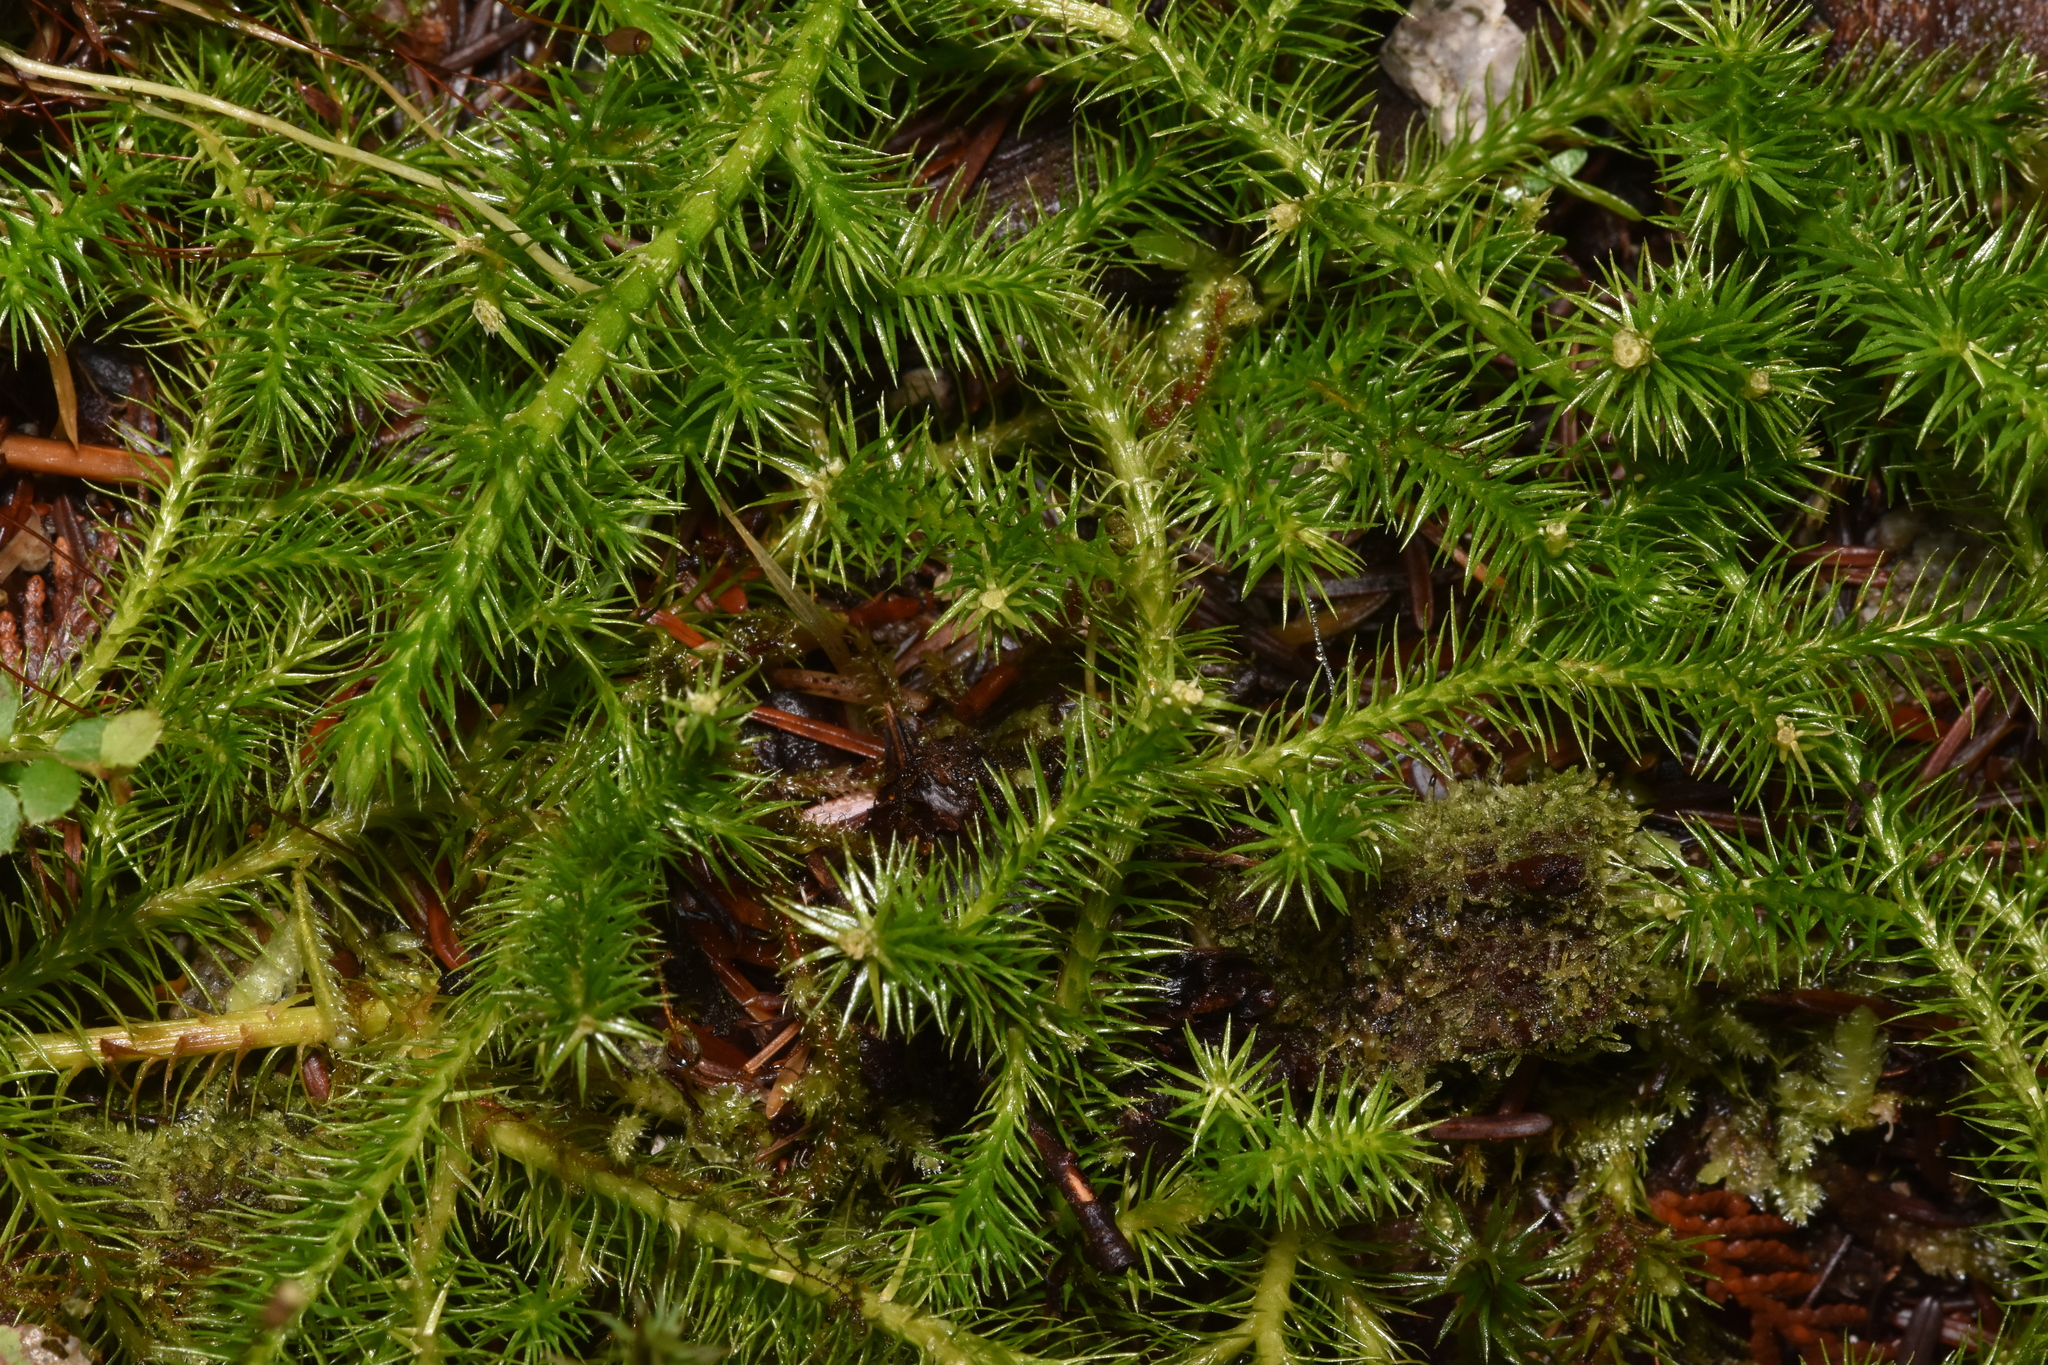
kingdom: Plantae
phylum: Tracheophyta
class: Lycopodiopsida
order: Lycopodiales
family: Lycopodiaceae
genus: Lycopodium
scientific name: Lycopodium clavatum
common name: Stag's-horn clubmoss
